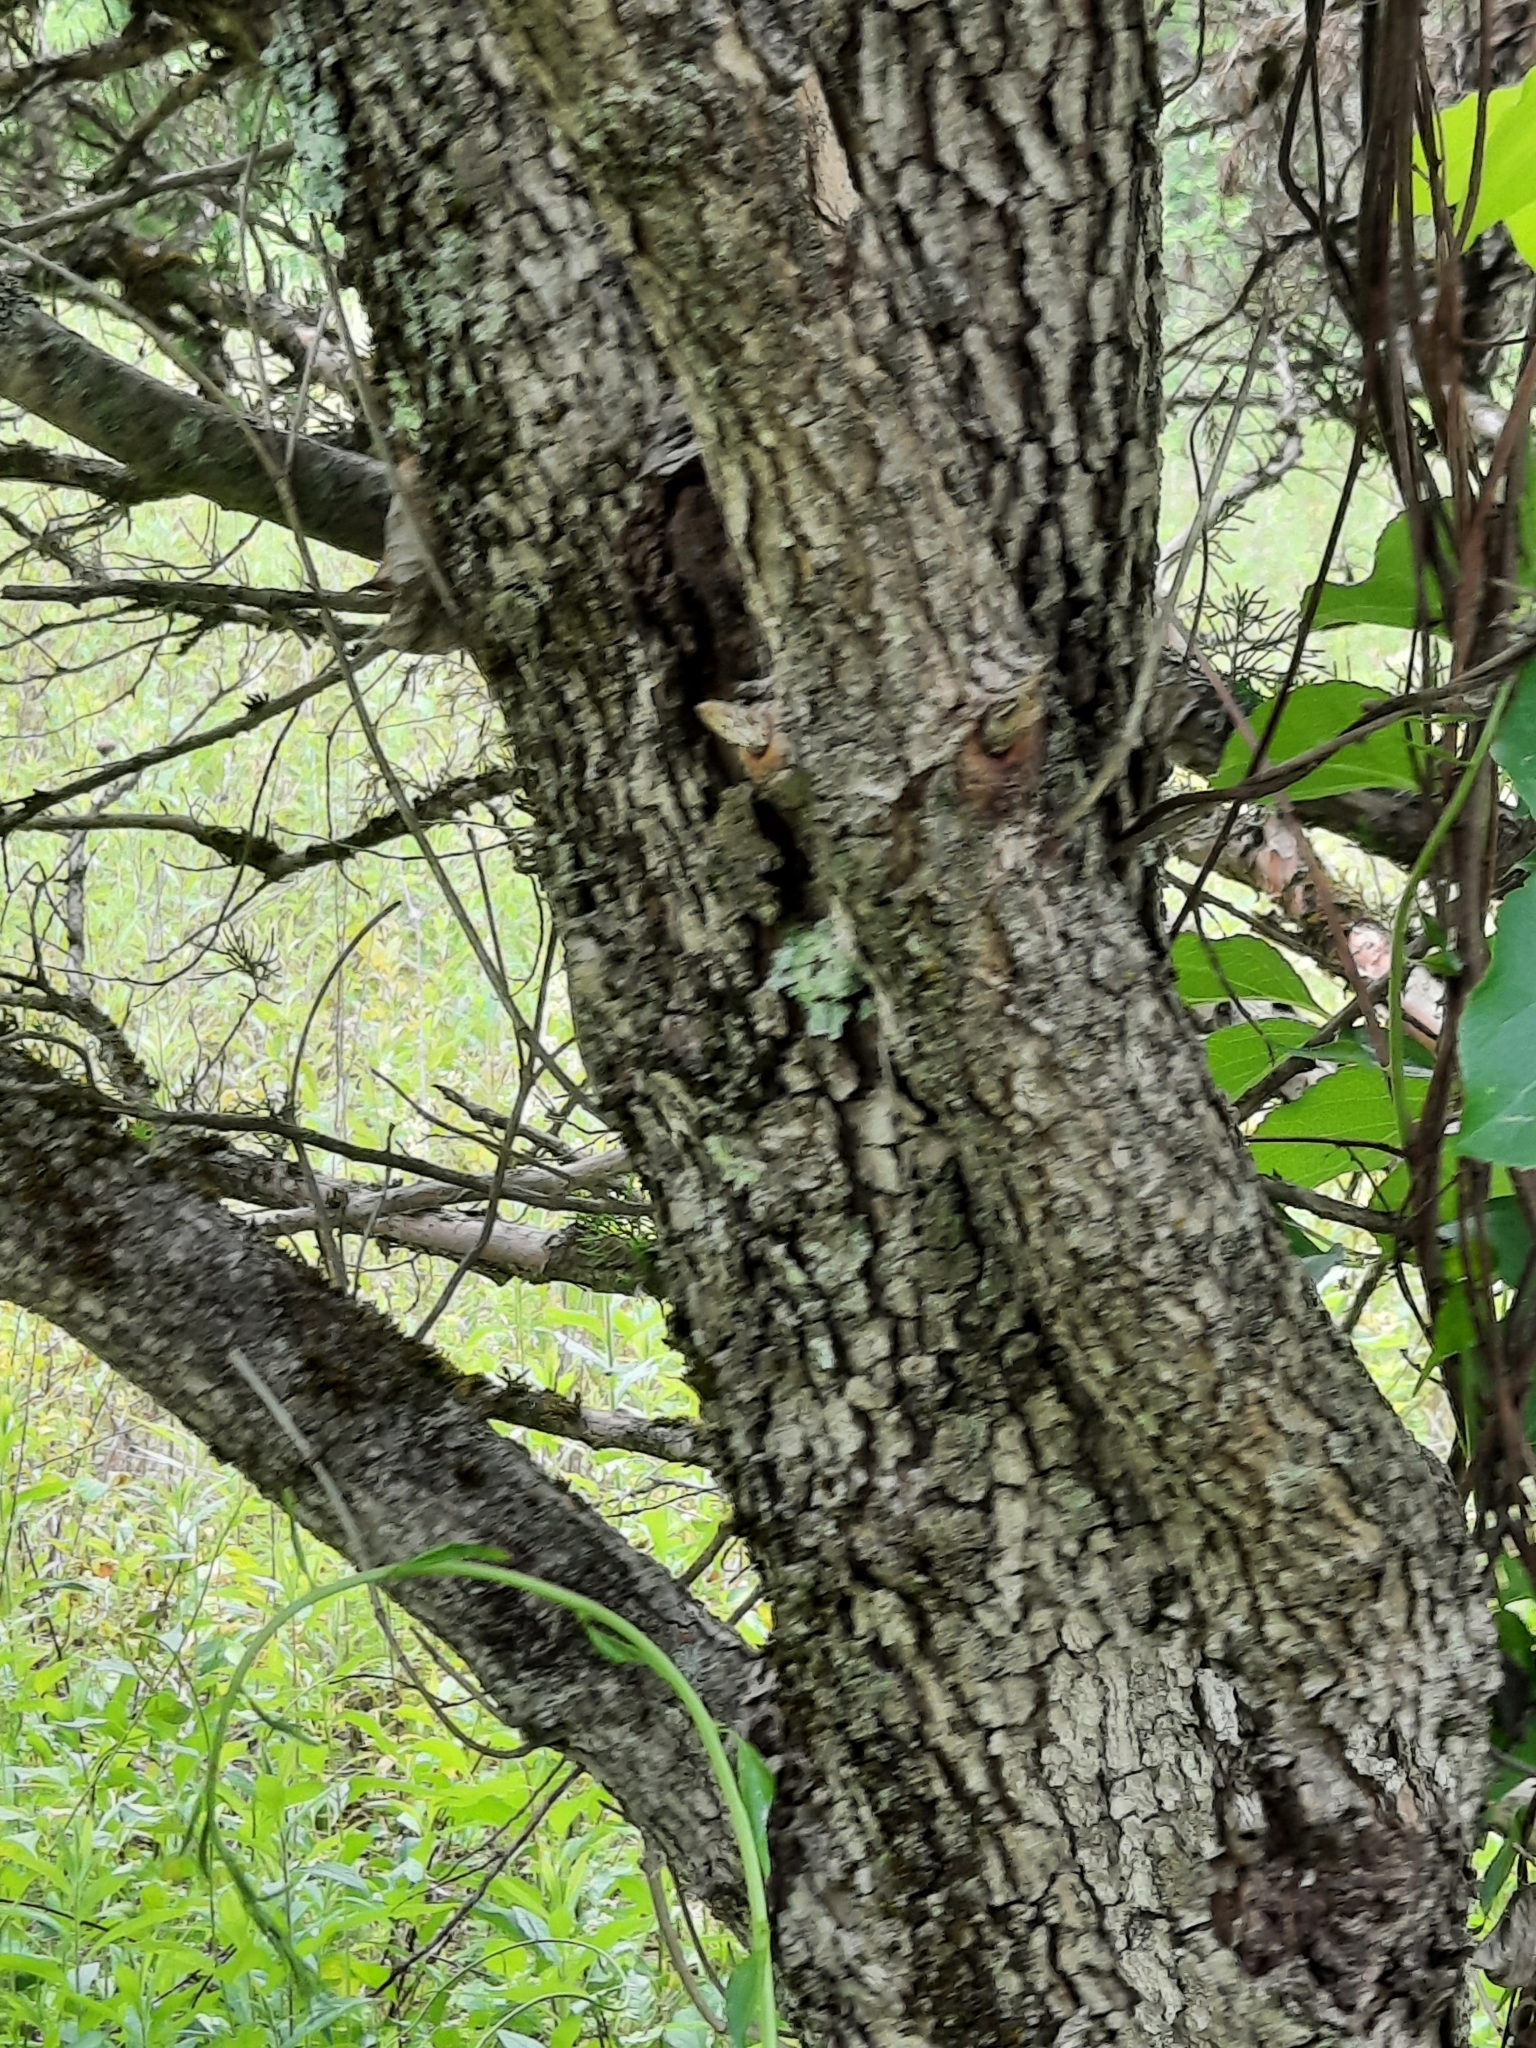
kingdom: Plantae
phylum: Tracheophyta
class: Magnoliopsida
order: Cornales
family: Cornaceae
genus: Cornus
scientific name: Cornus florida
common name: Flowering dogwood
